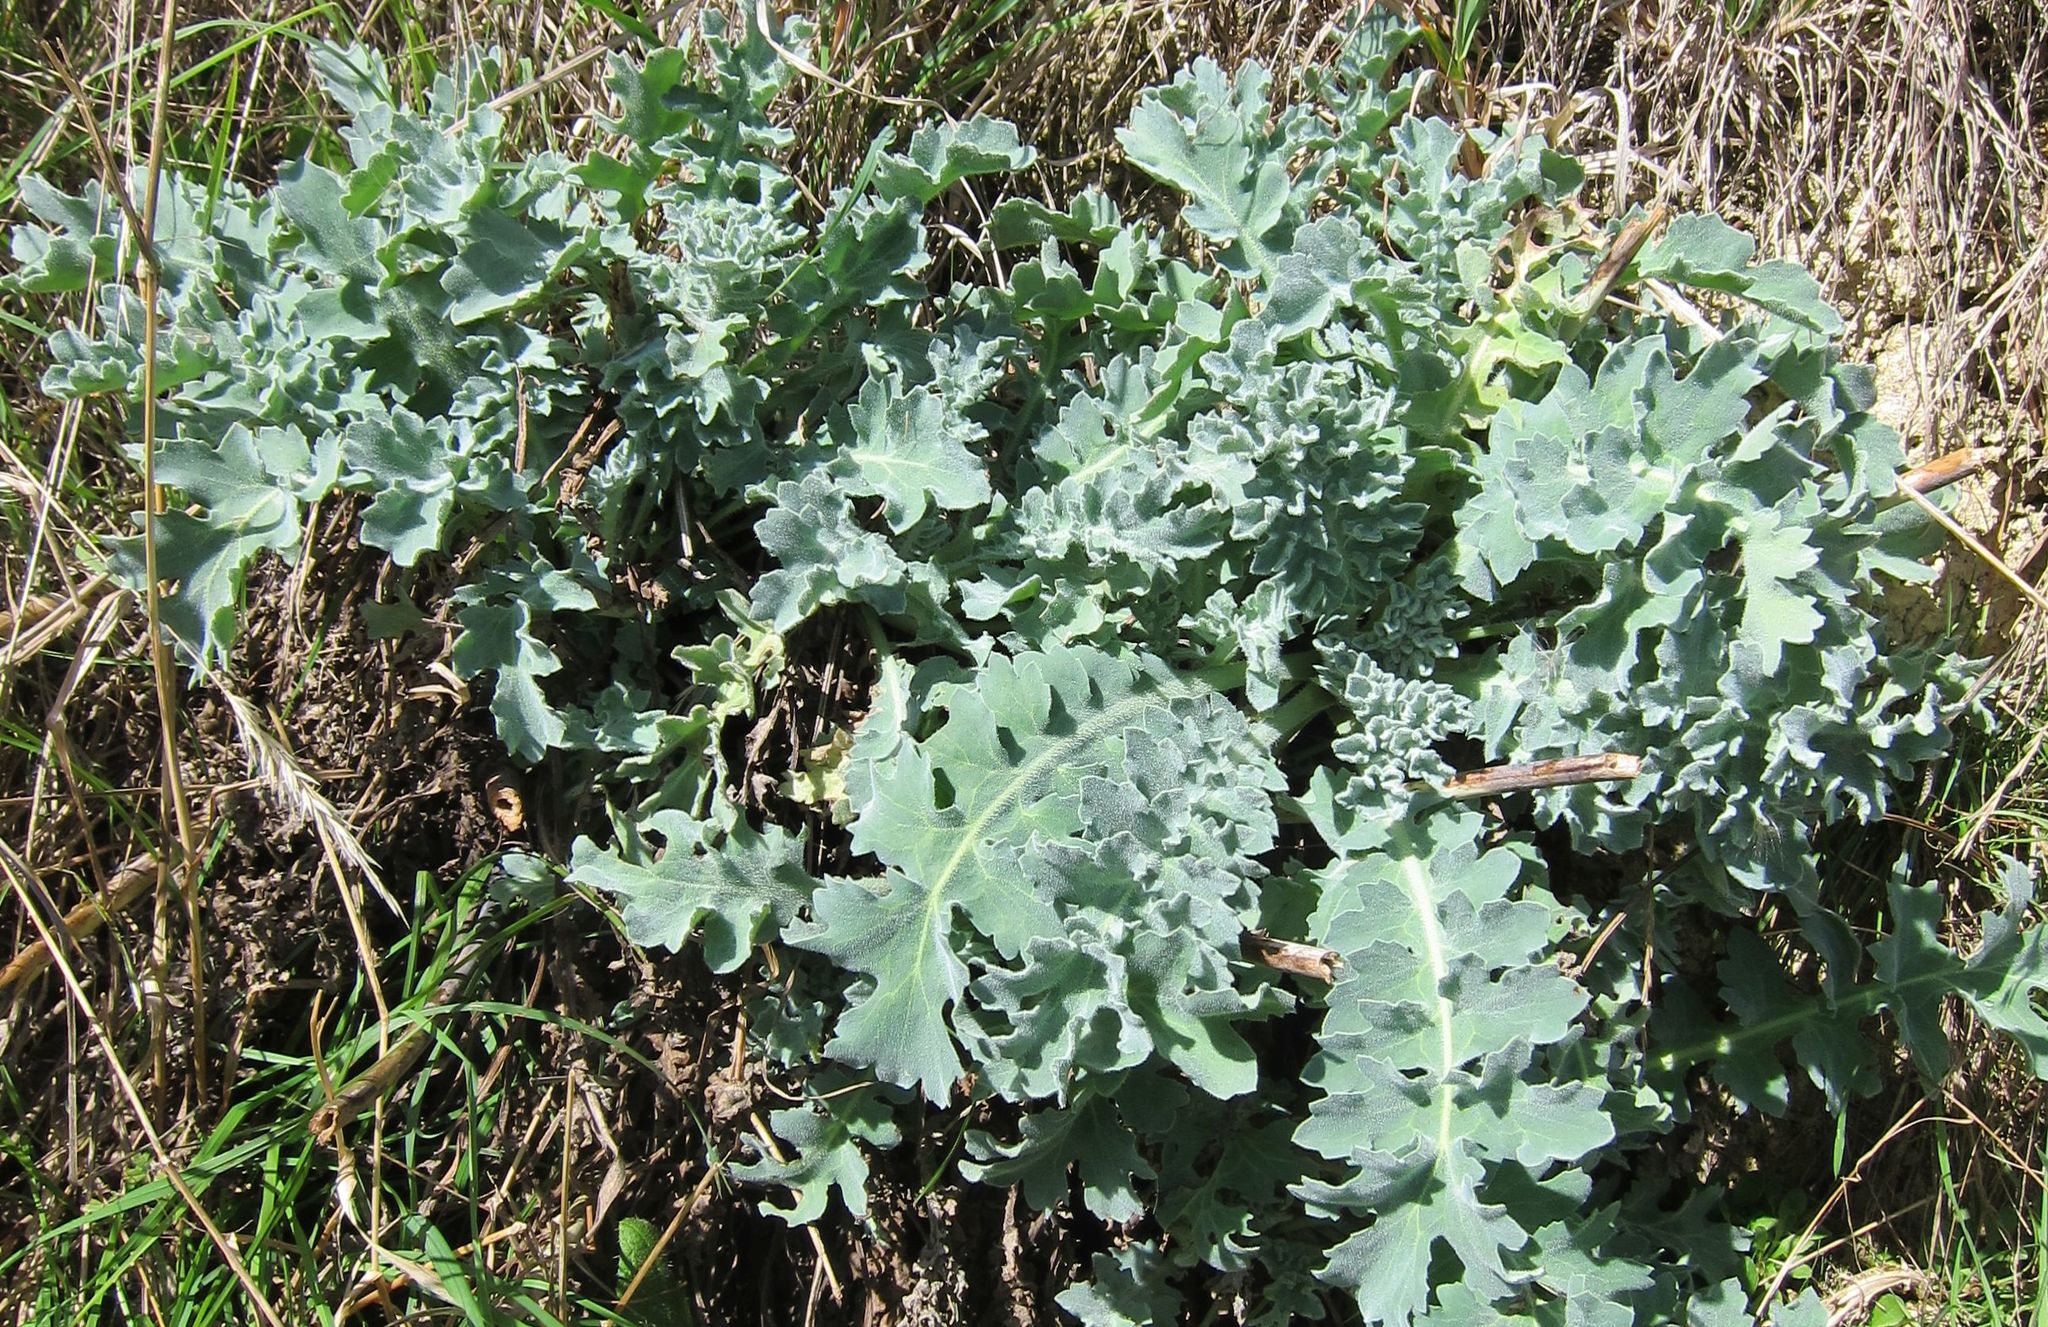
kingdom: Plantae
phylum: Tracheophyta
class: Magnoliopsida
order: Ranunculales
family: Papaveraceae
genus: Glaucium
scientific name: Glaucium flavum
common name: Yellow horned-poppy
